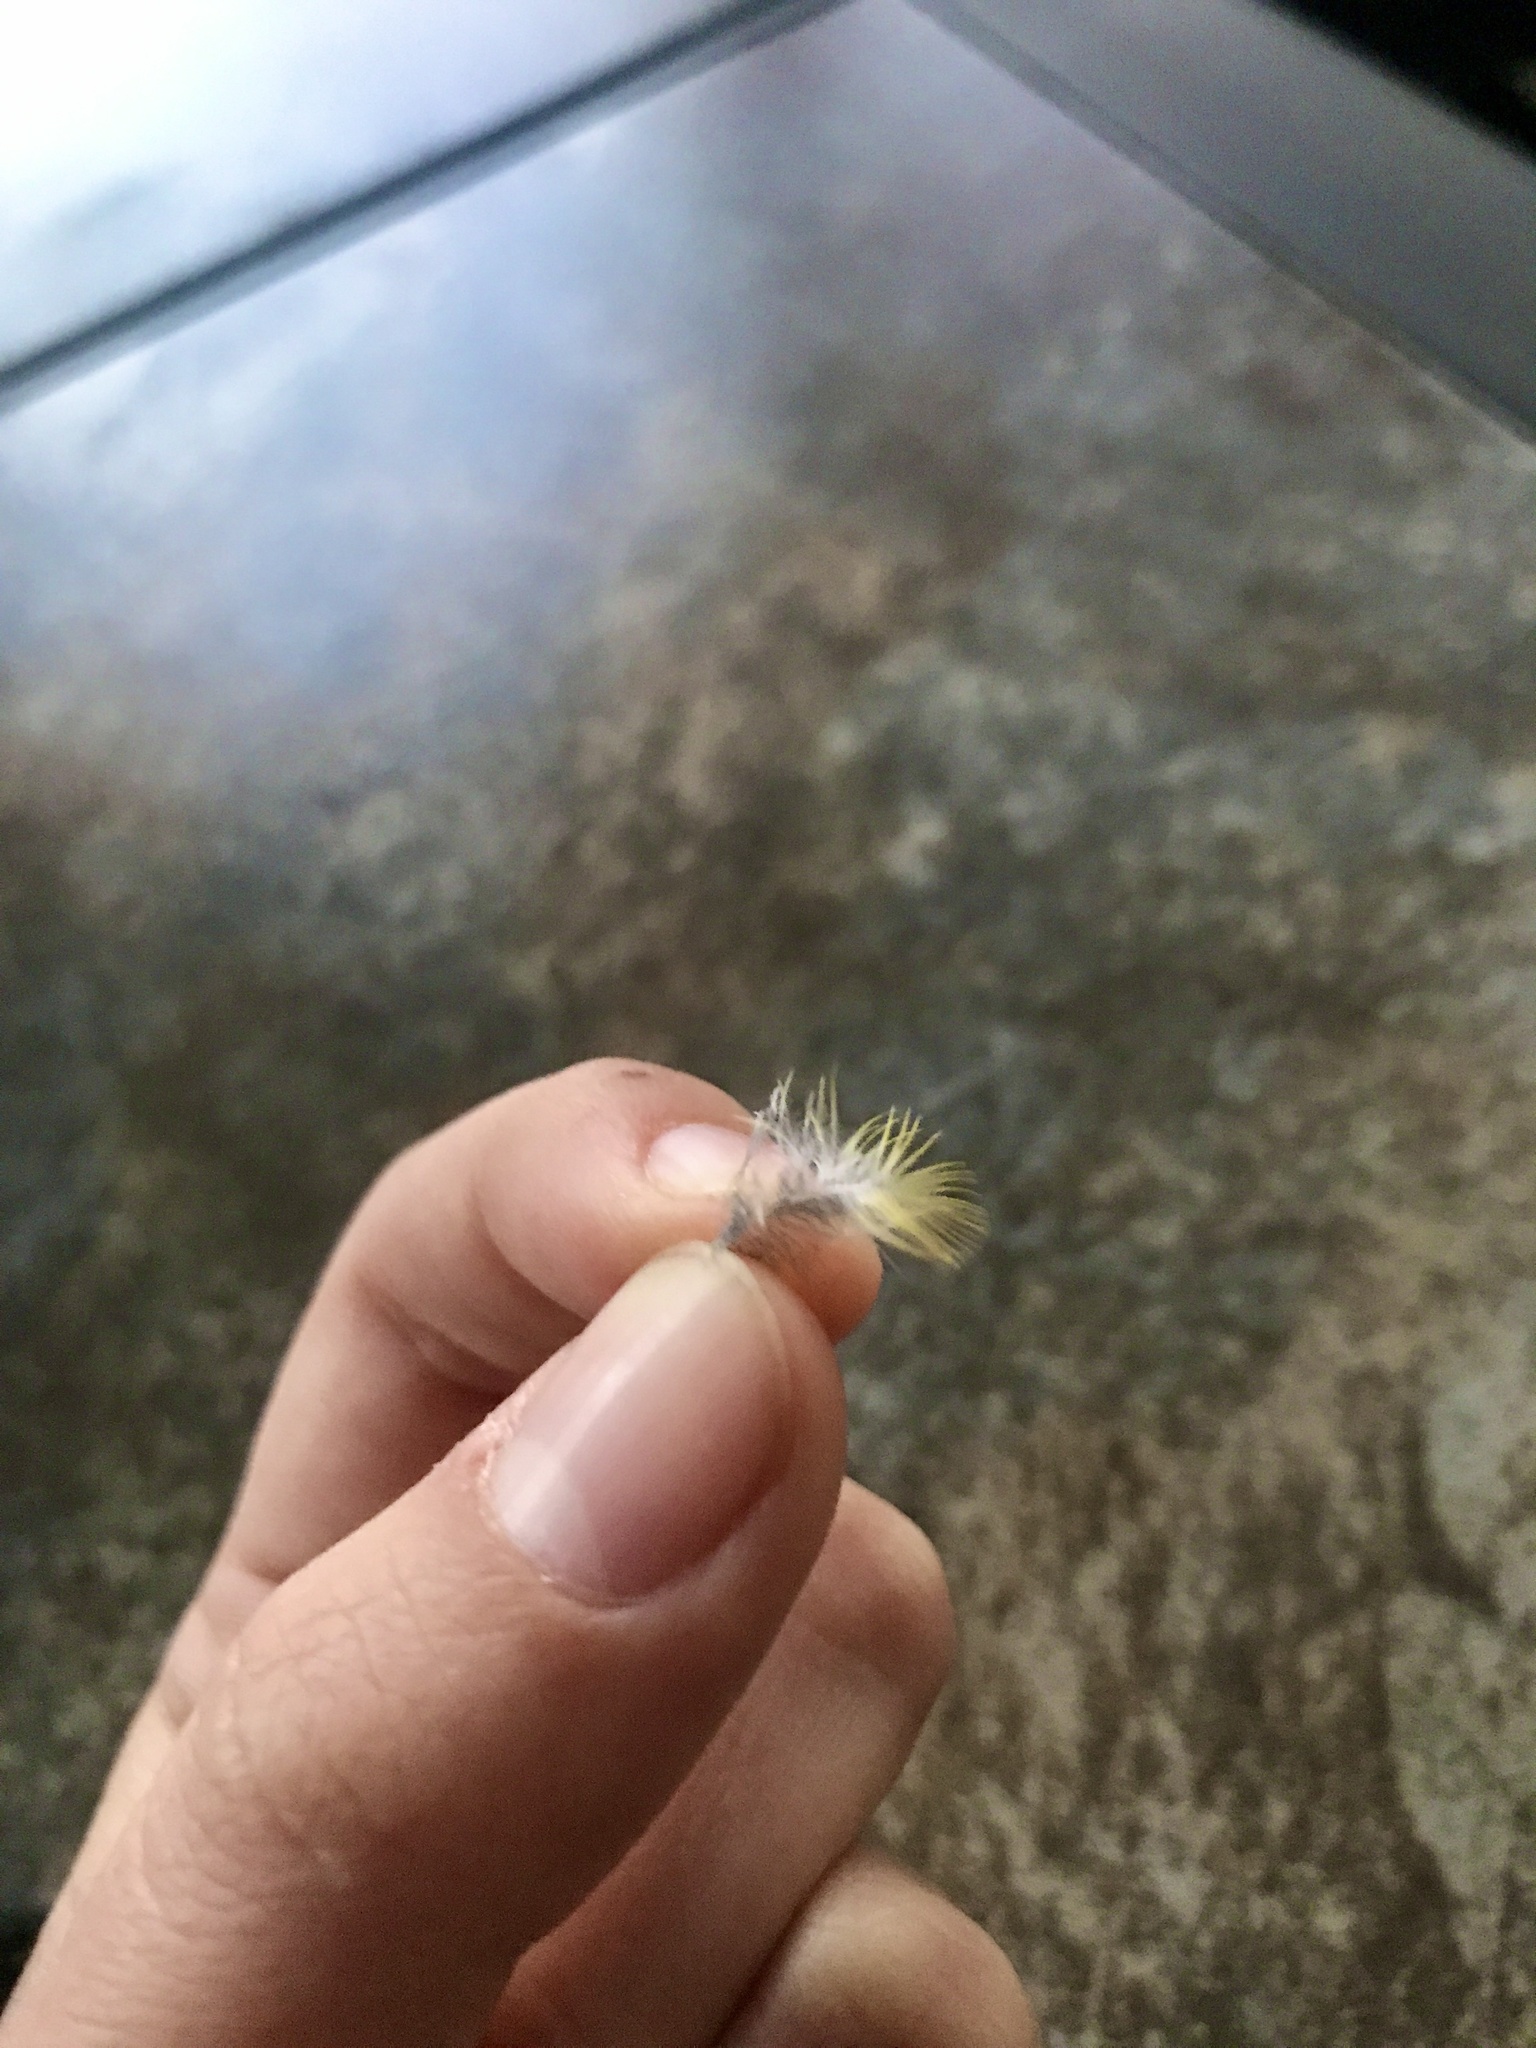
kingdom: Animalia
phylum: Chordata
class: Aves
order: Passeriformes
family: Fringillidae
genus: Spinus
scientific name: Spinus tristis
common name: American goldfinch
